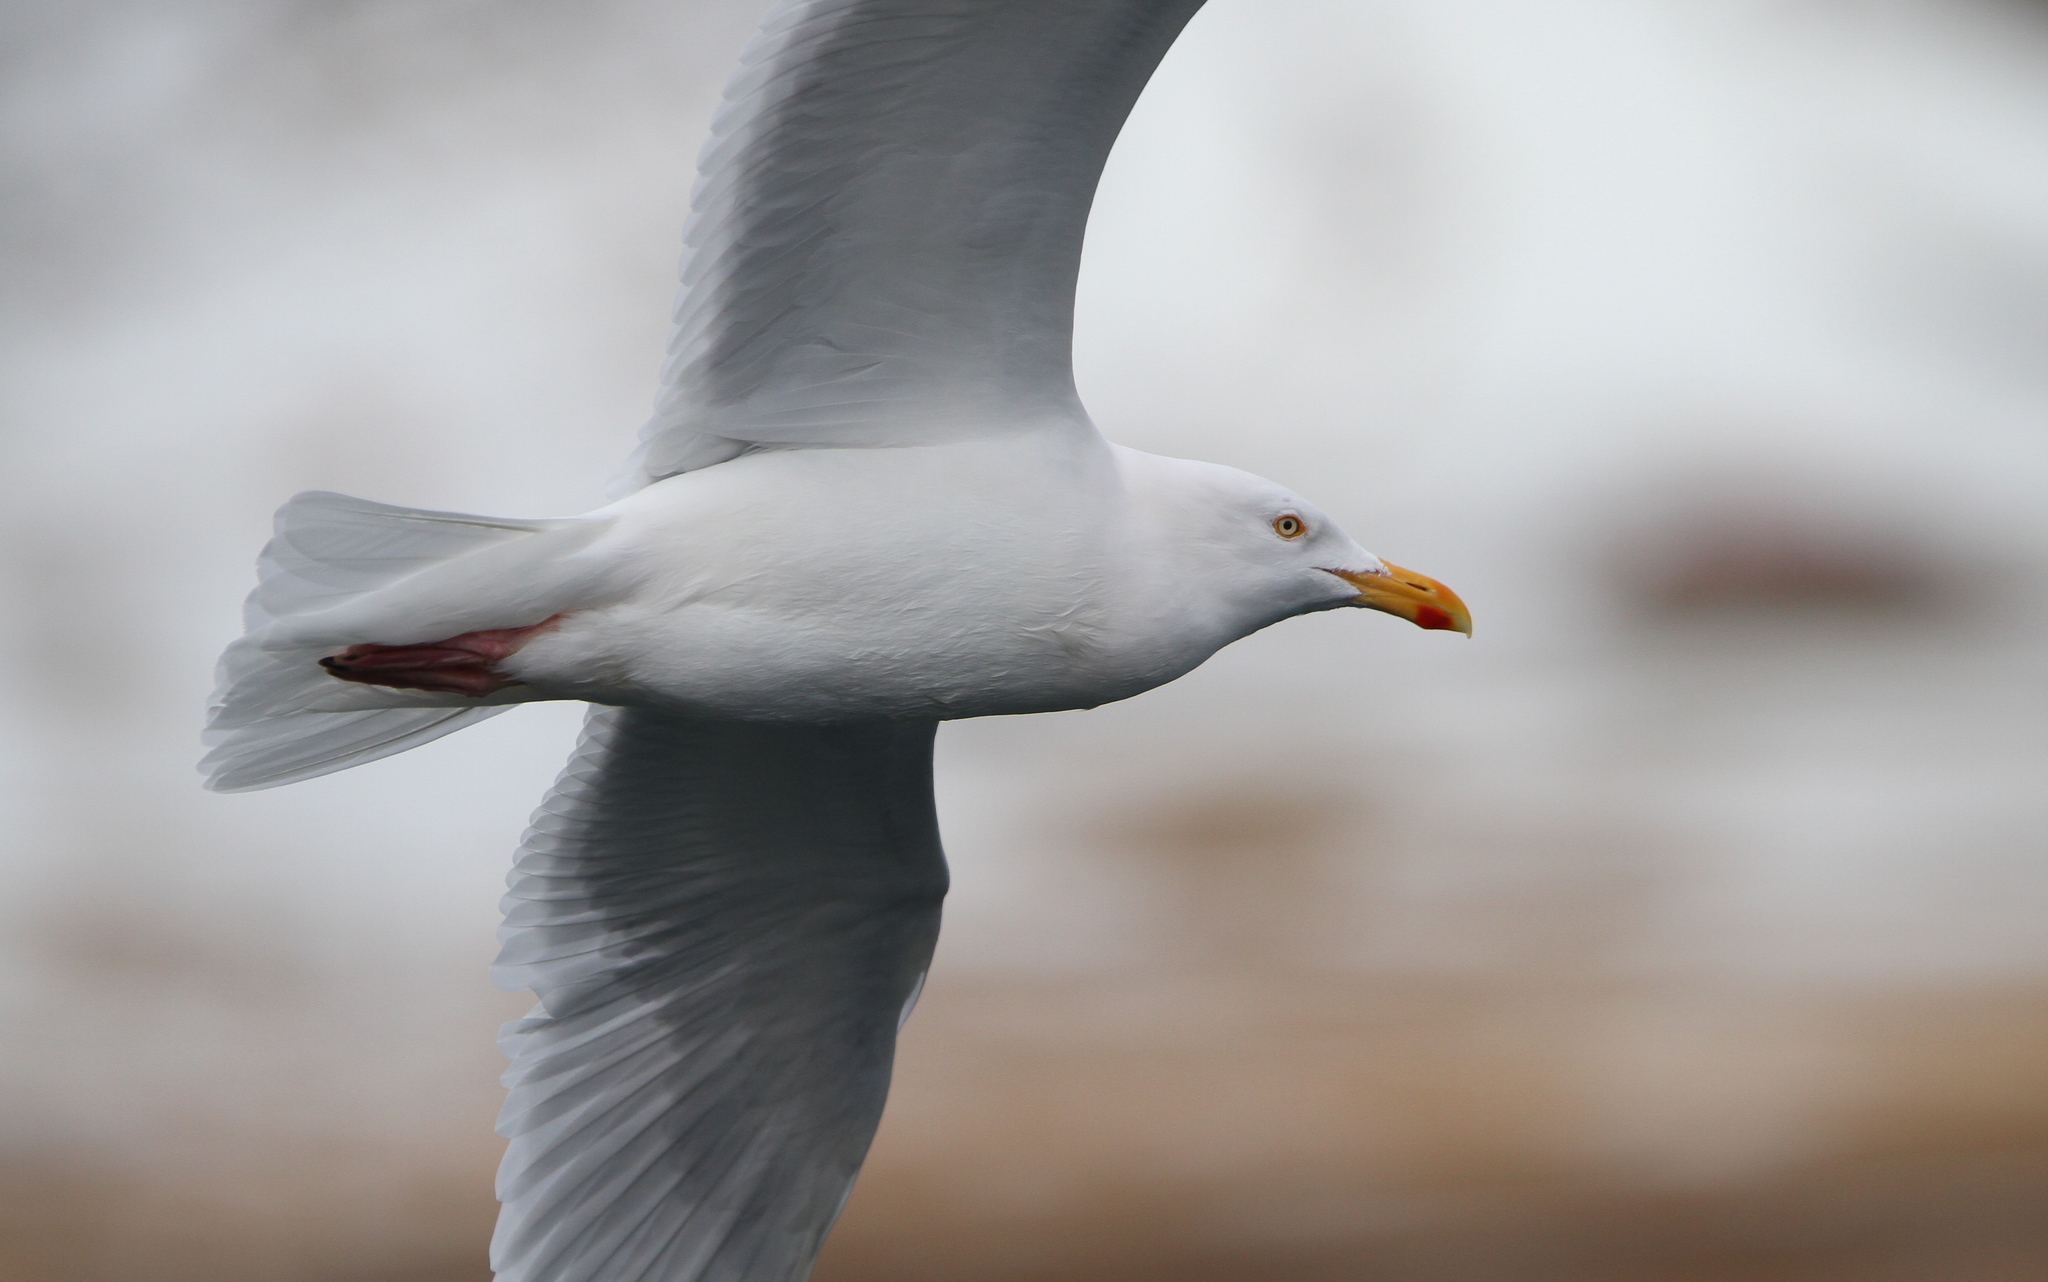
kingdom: Animalia
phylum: Chordata
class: Aves
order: Charadriiformes
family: Laridae
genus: Larus
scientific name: Larus hyperboreus
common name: Glaucous gull
